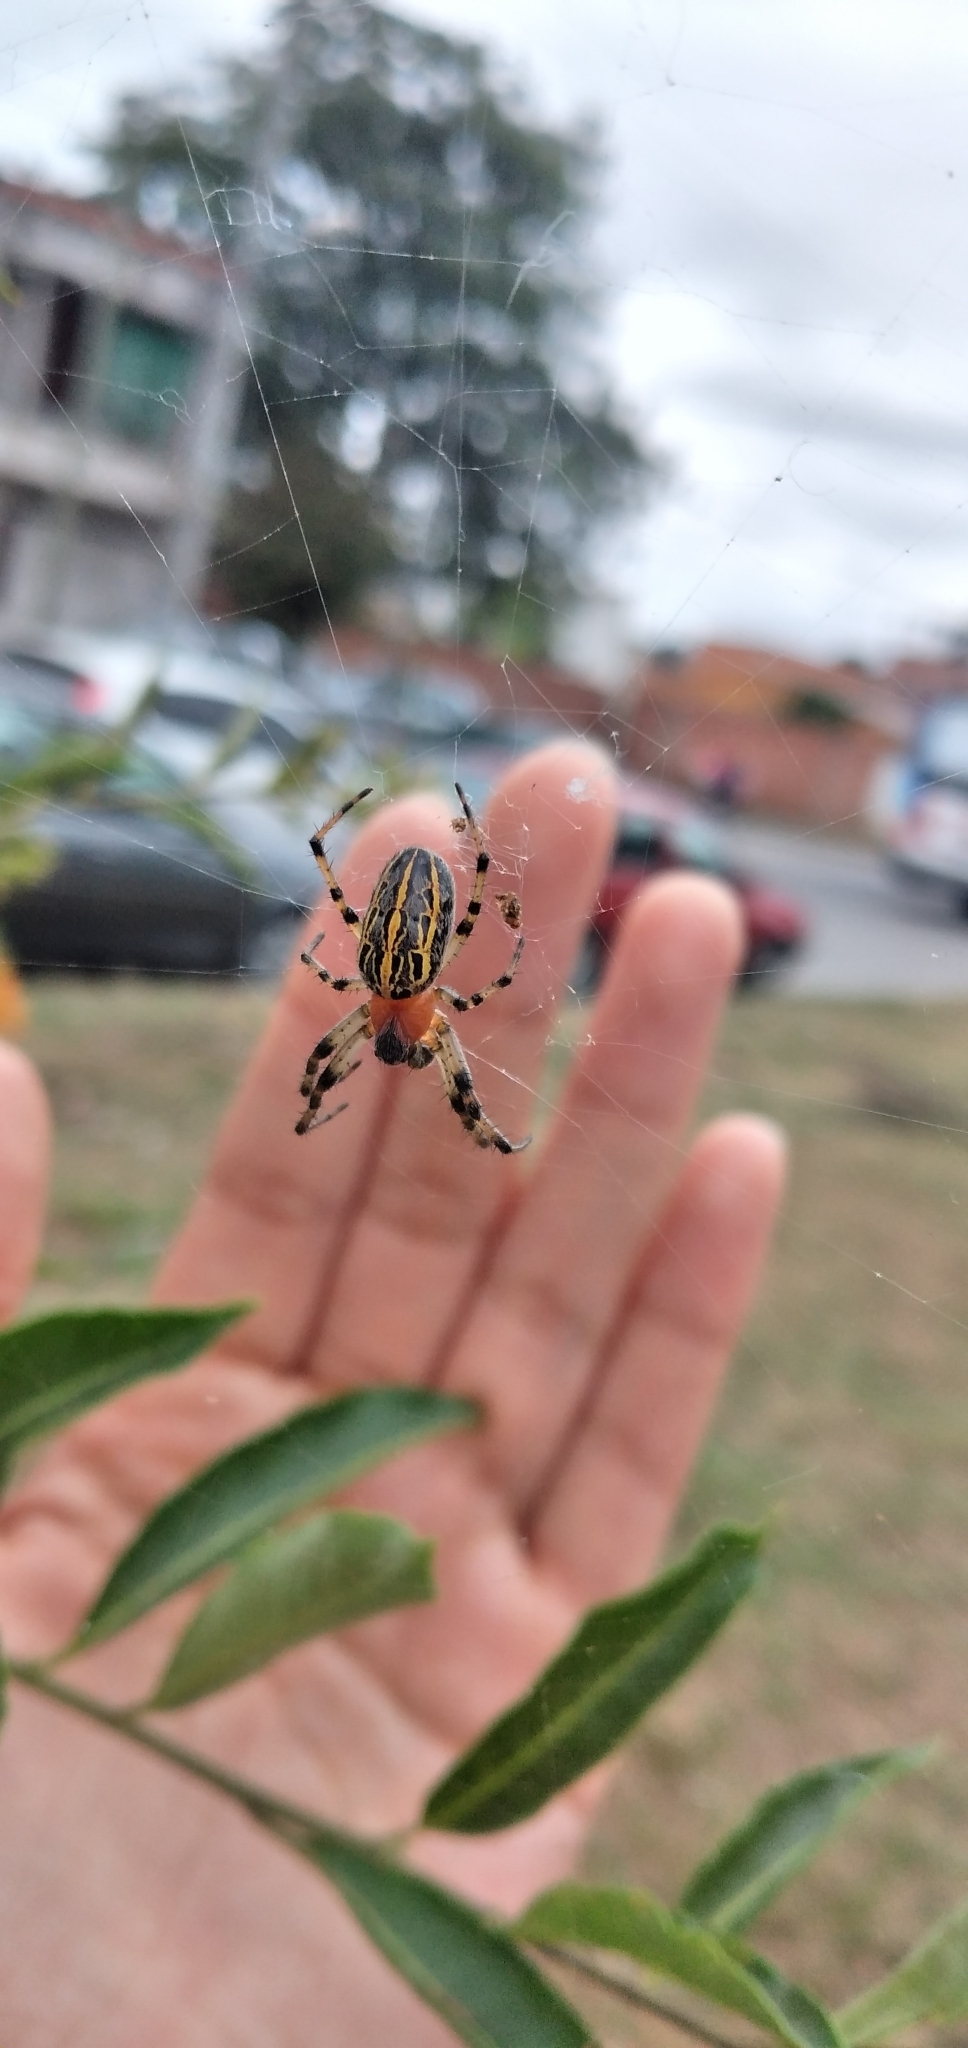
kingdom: Animalia
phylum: Arthropoda
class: Arachnida
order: Araneae
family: Araneidae
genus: Alpaida
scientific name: Alpaida veniliae
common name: Orb weavers
